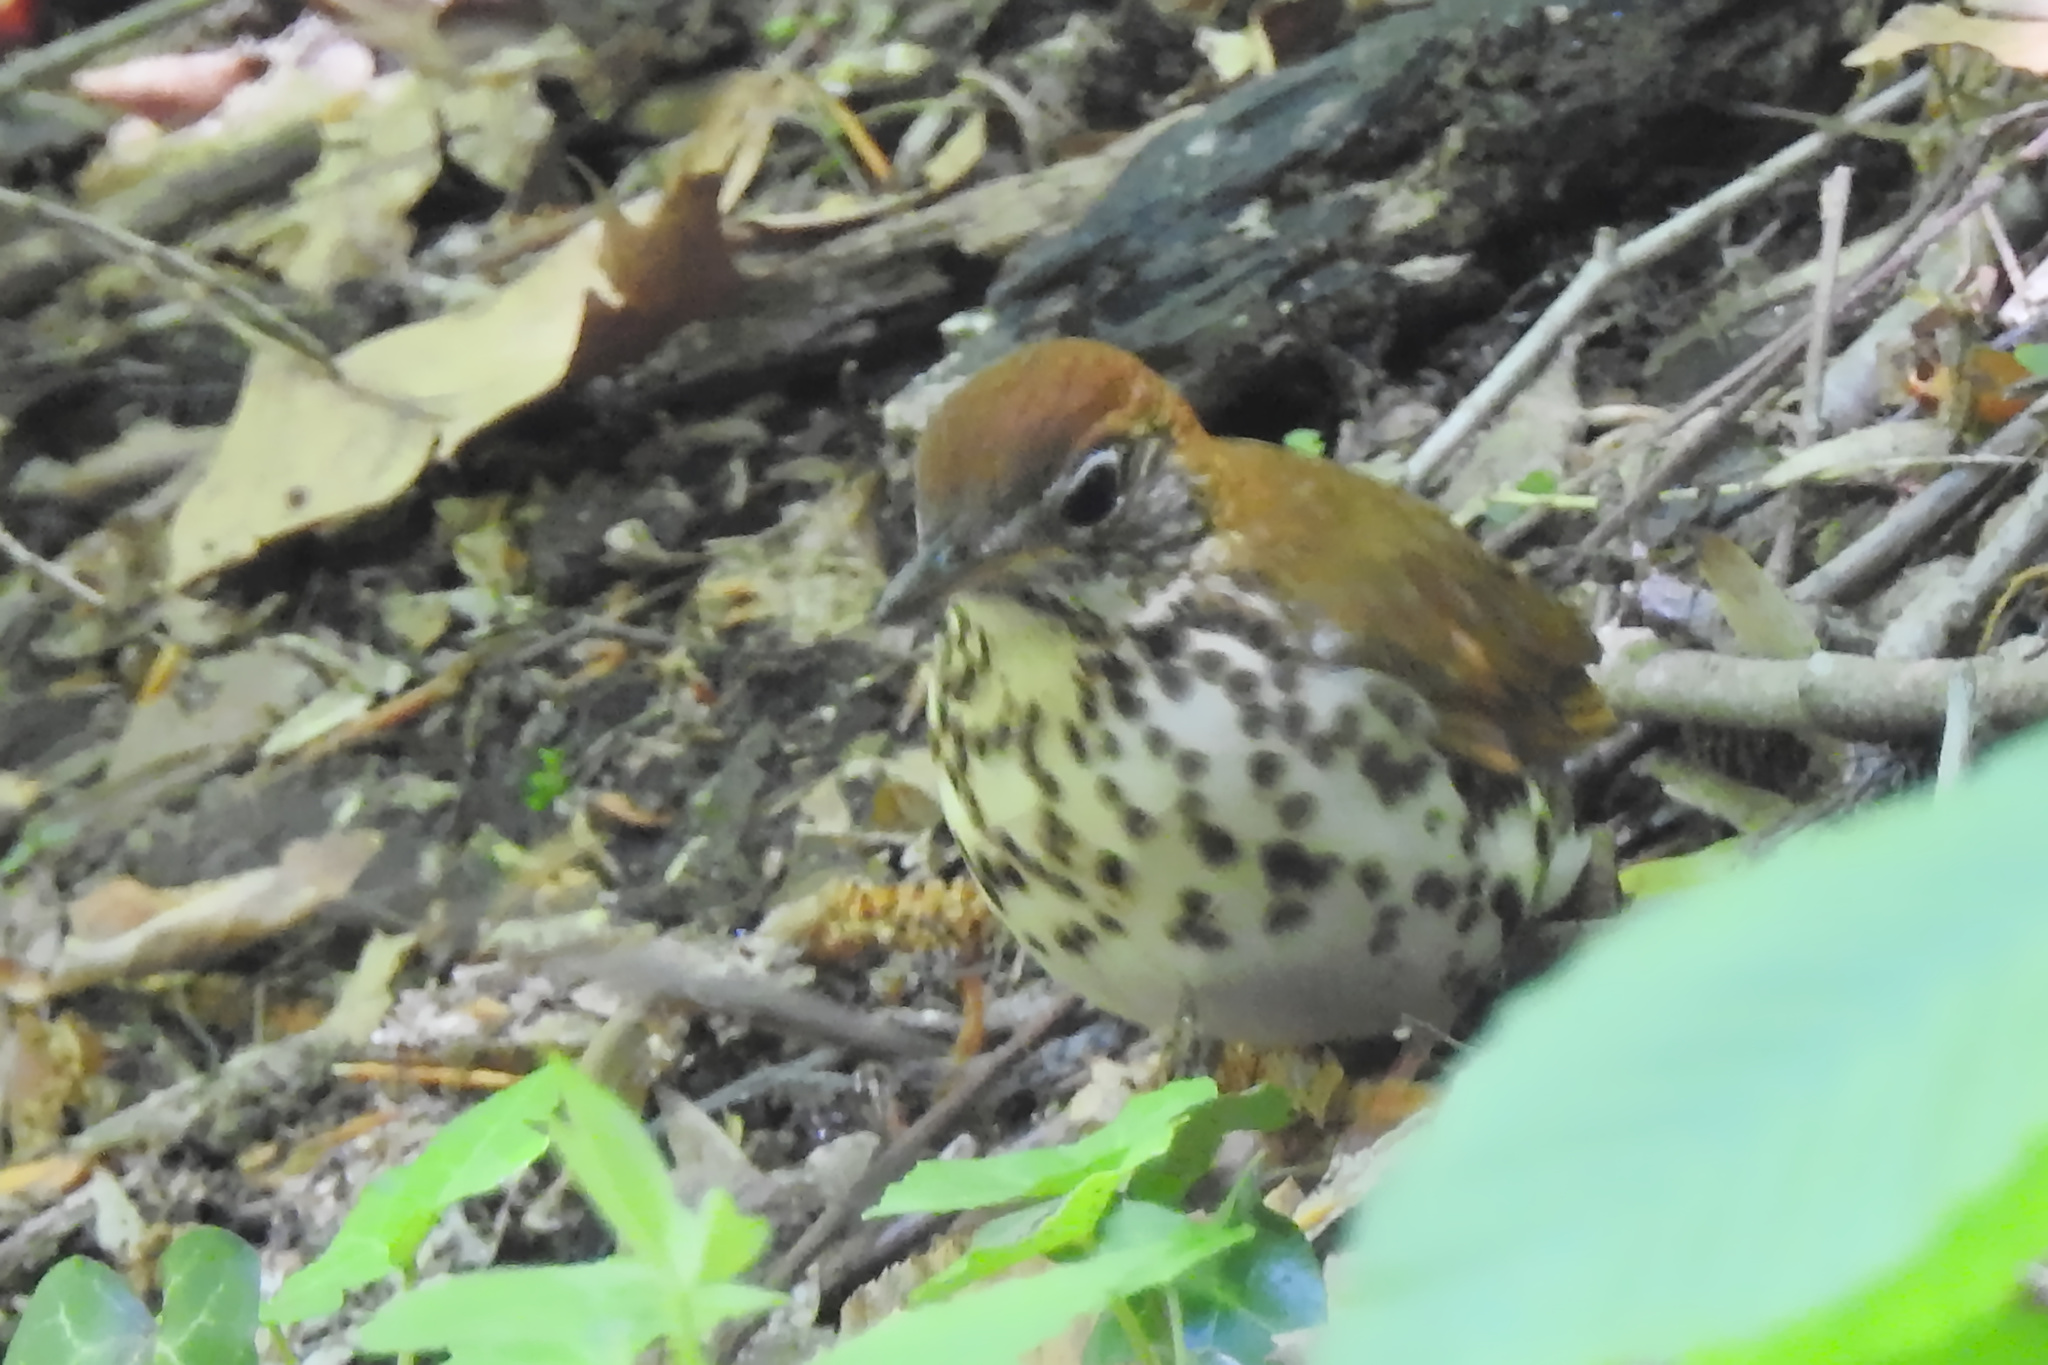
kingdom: Animalia
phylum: Chordata
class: Aves
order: Passeriformes
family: Turdidae
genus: Hylocichla
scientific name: Hylocichla mustelina
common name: Wood thrush
